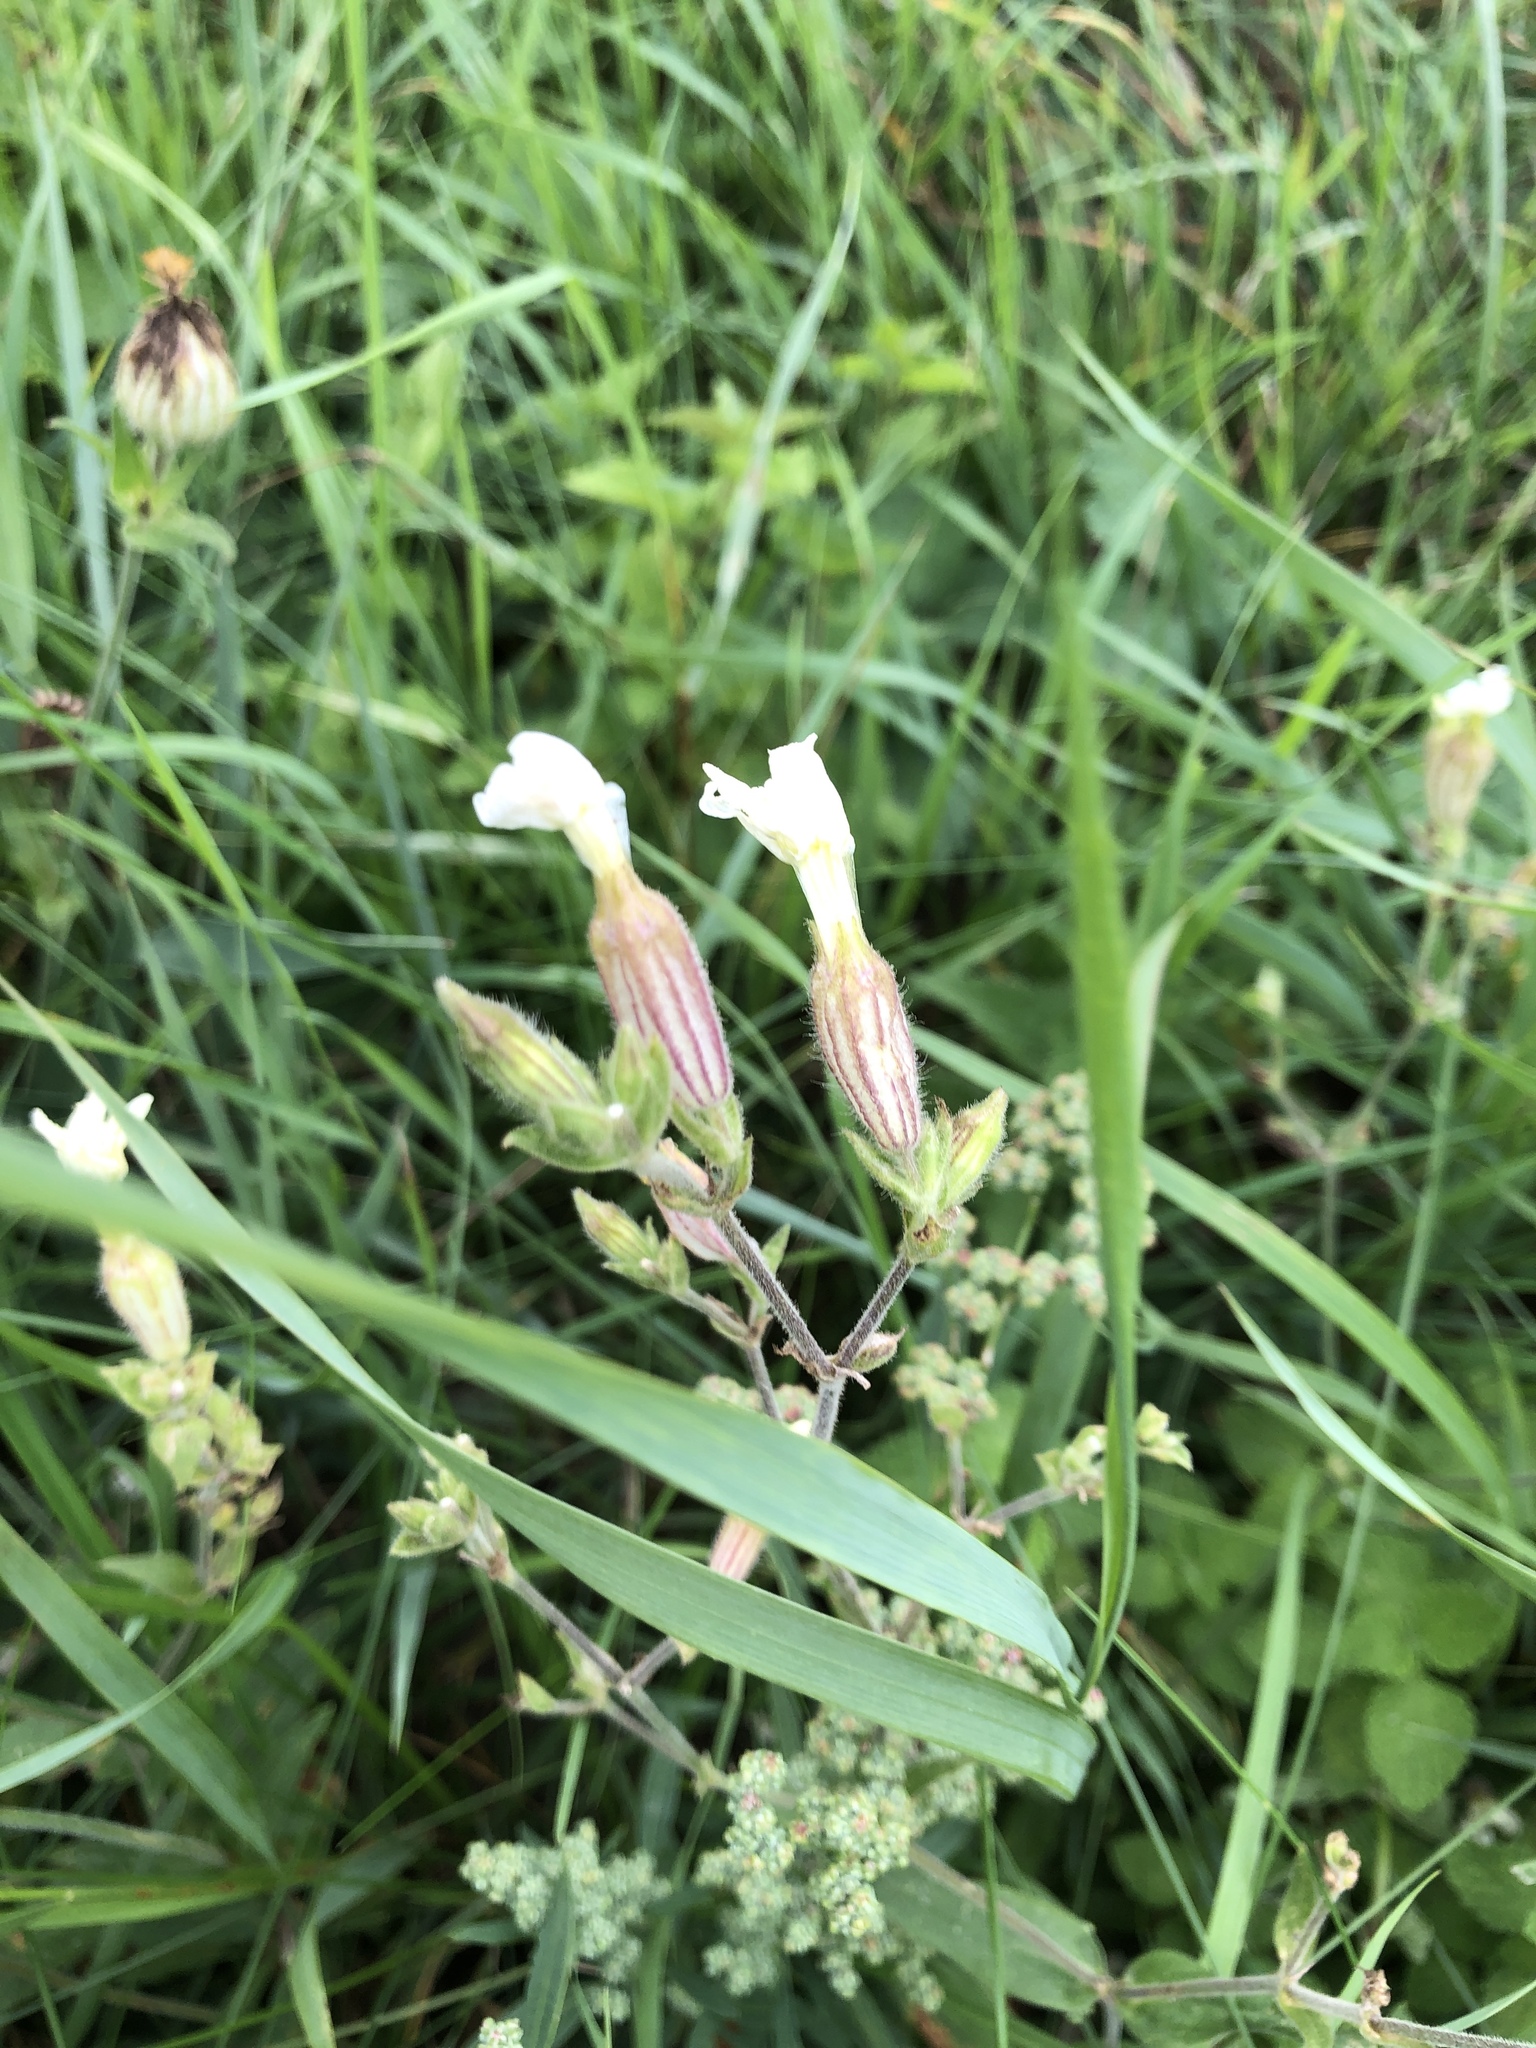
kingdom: Plantae
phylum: Tracheophyta
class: Magnoliopsida
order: Caryophyllales
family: Caryophyllaceae
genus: Silene
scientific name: Silene latifolia
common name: White campion
